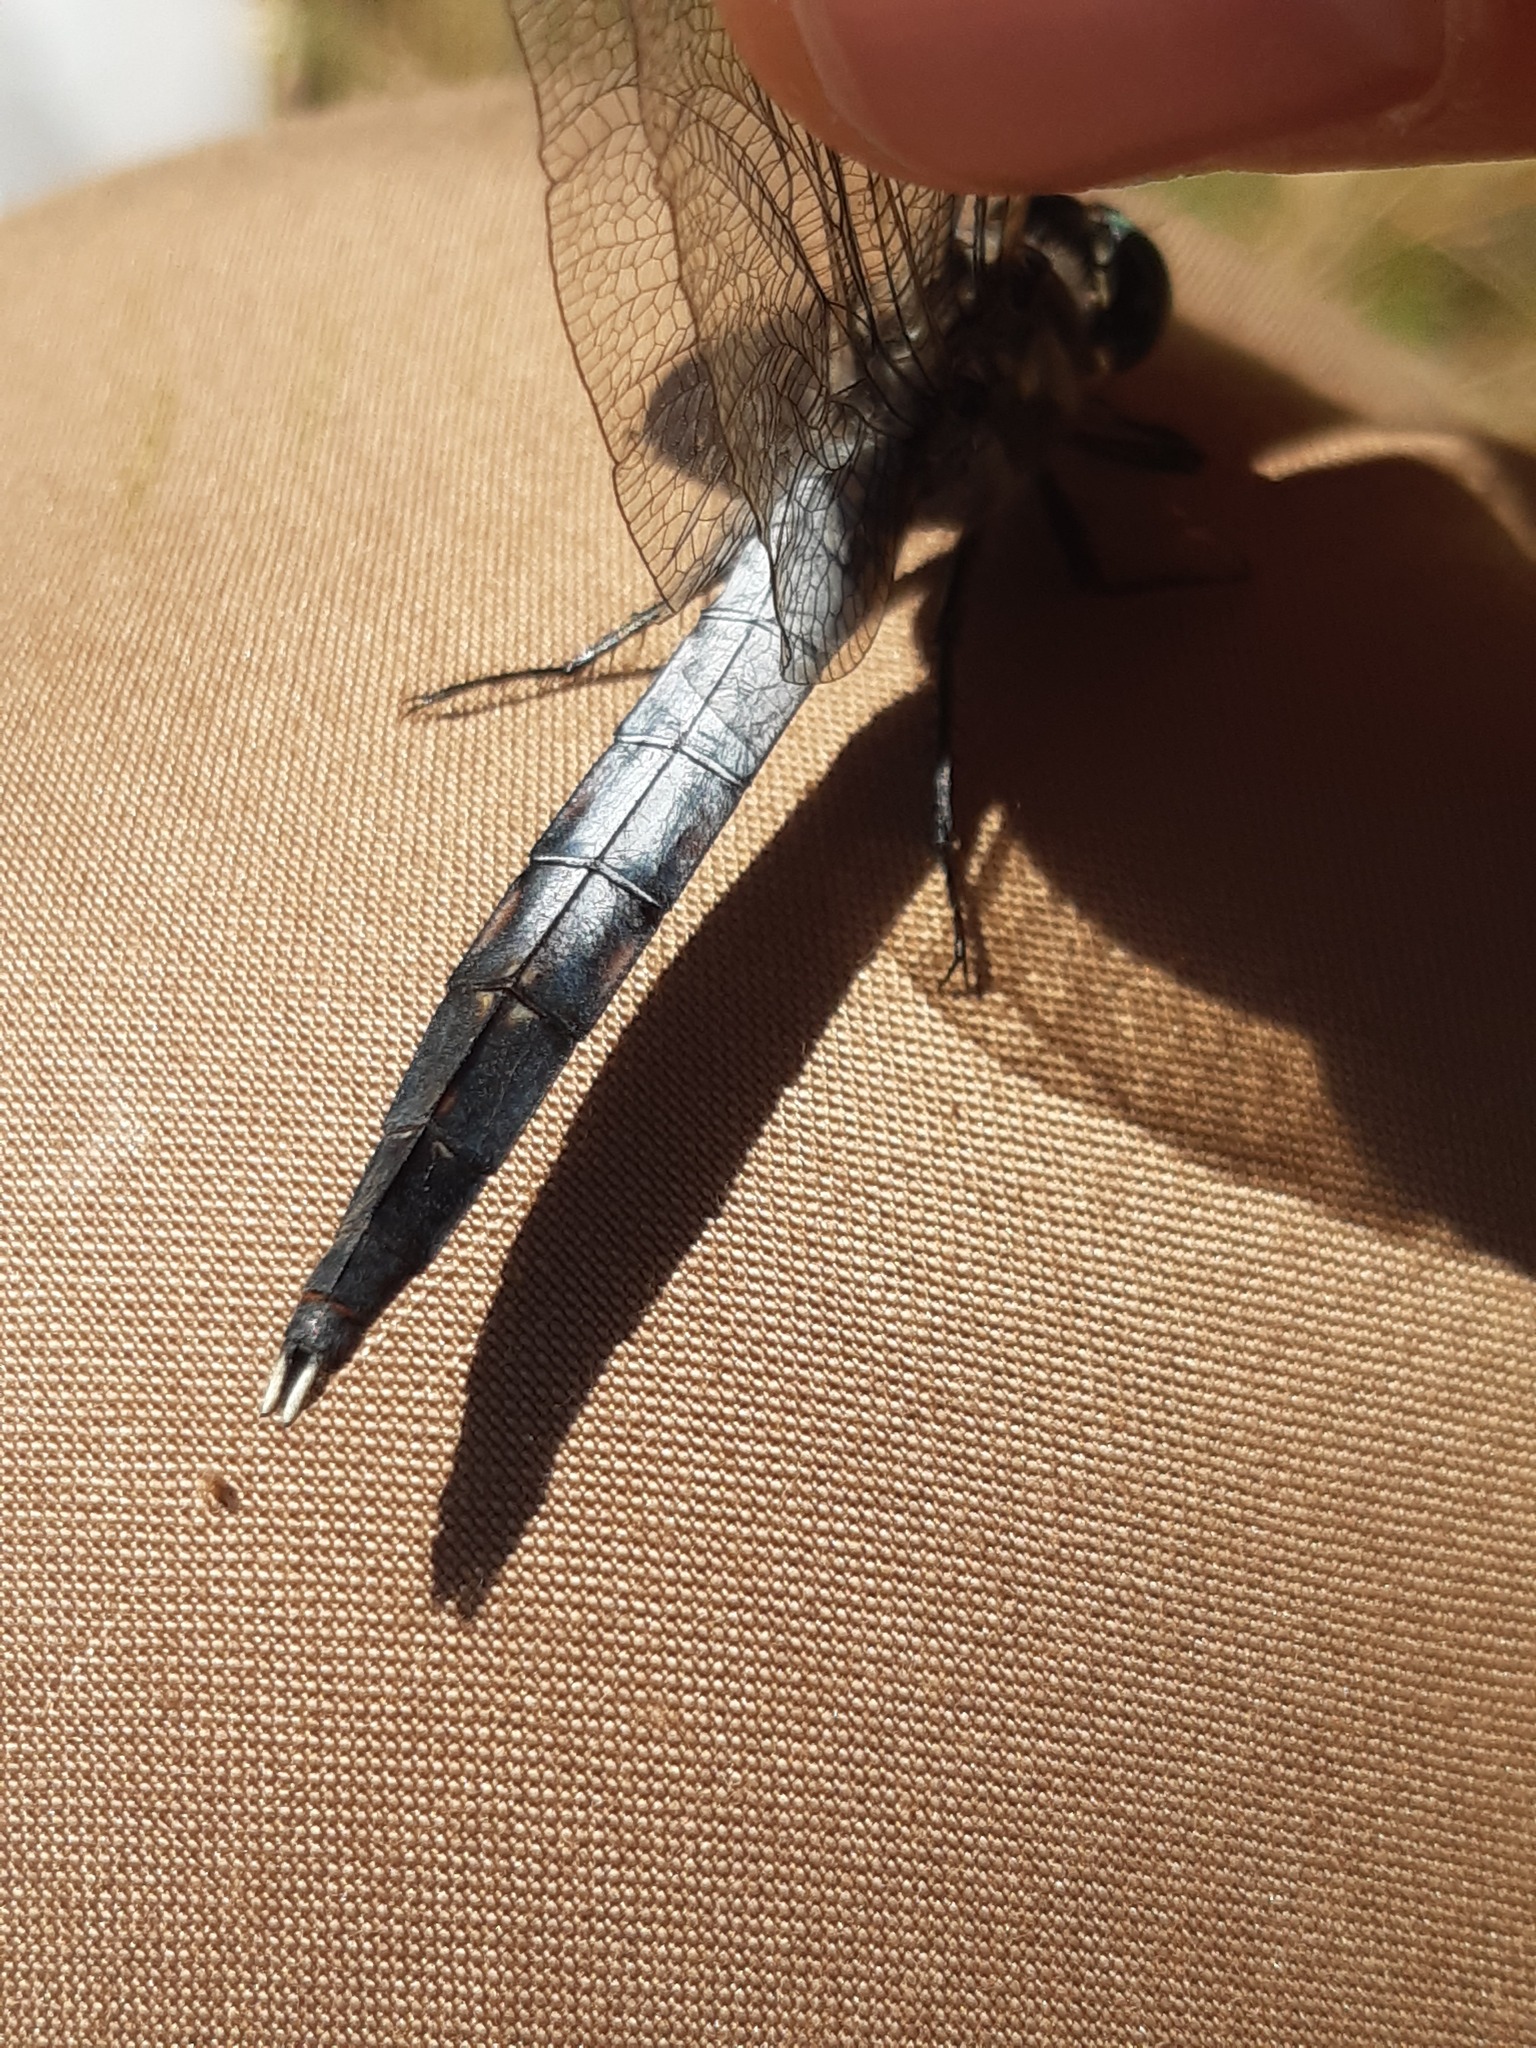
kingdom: Animalia
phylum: Arthropoda
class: Insecta
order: Odonata
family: Libellulidae
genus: Orthetrum
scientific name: Orthetrum albistylum
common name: White-tailed skimmer
